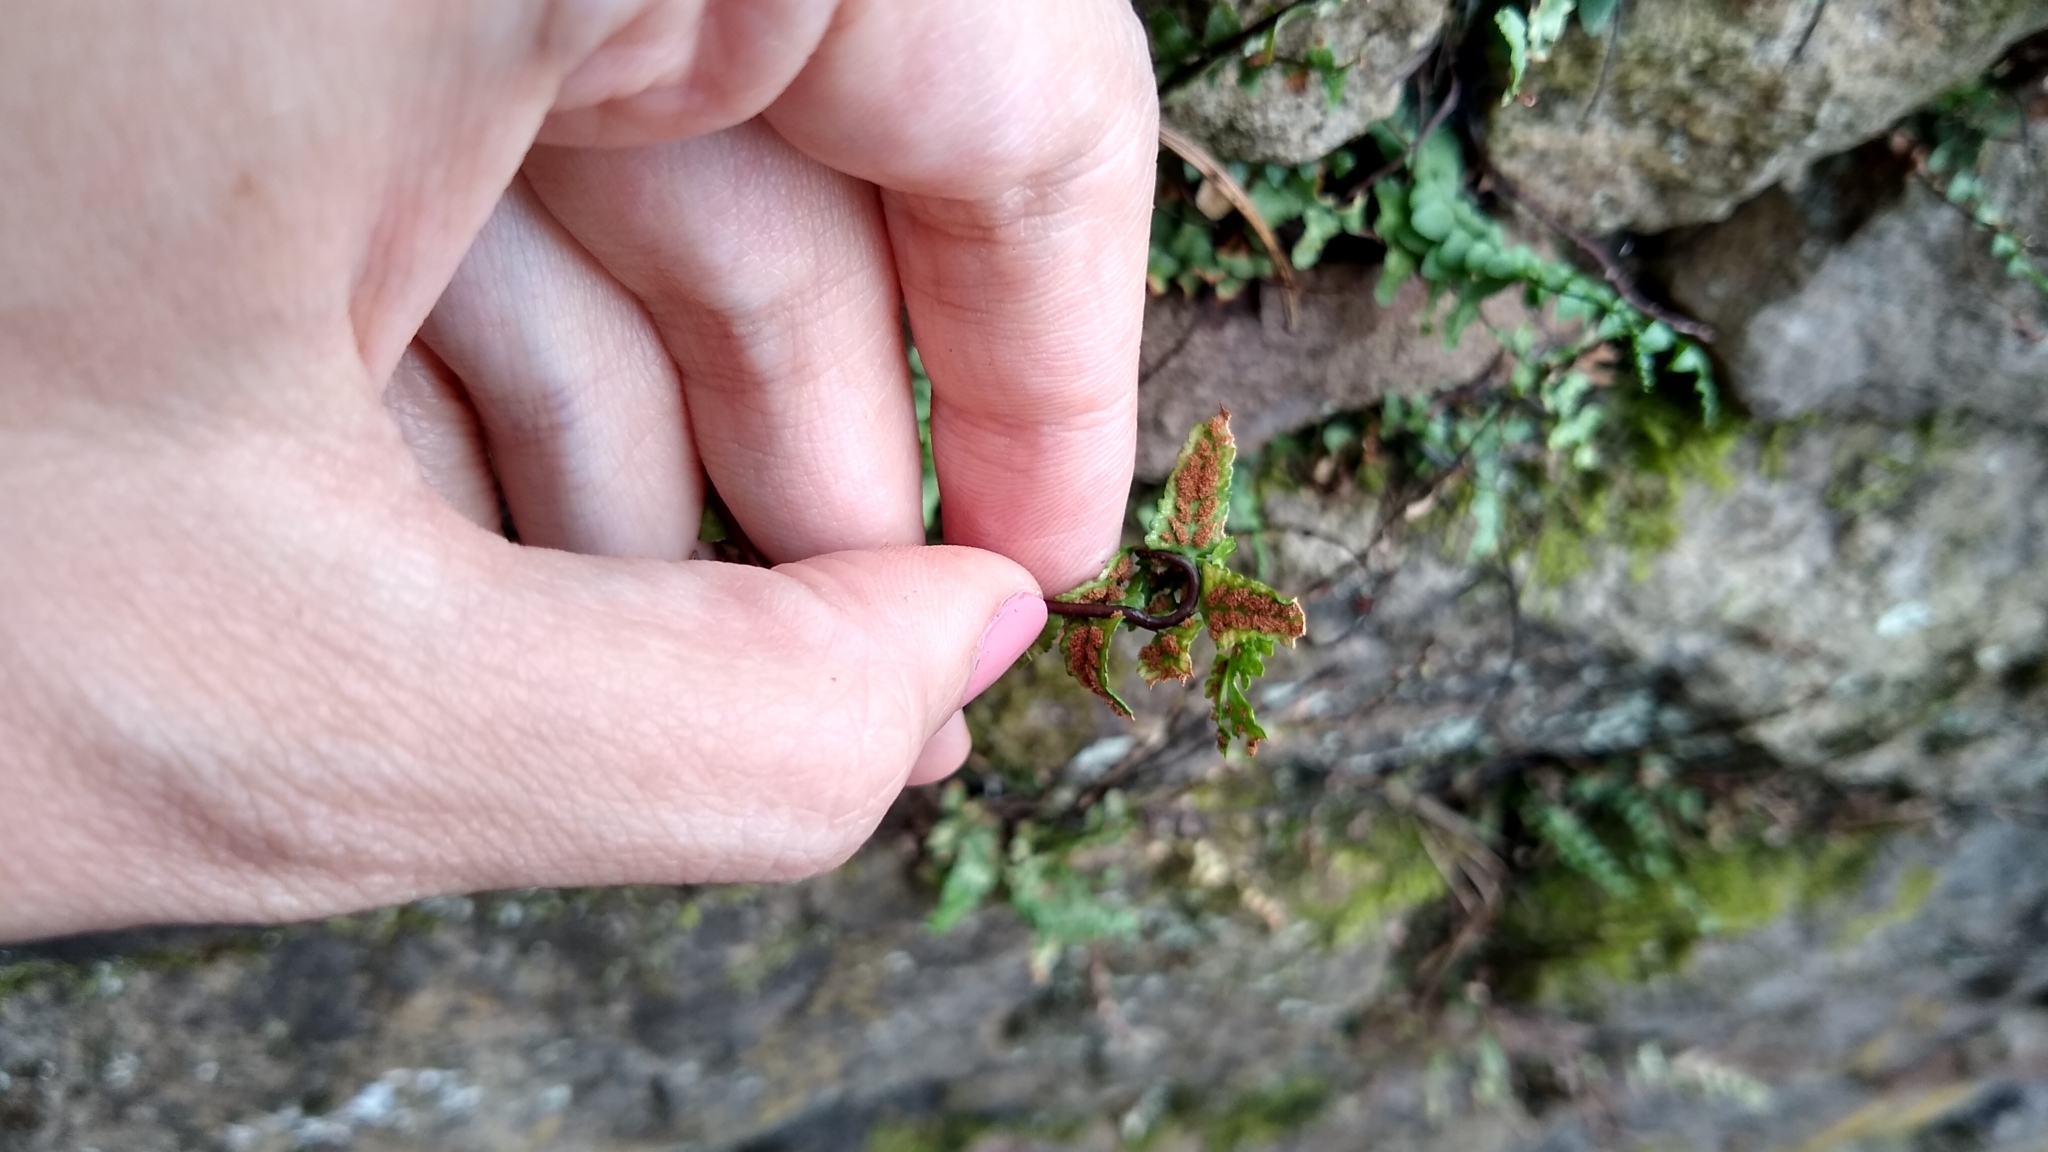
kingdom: Plantae
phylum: Tracheophyta
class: Polypodiopsida
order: Polypodiales
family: Aspleniaceae
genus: Asplenium
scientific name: Asplenium platyneuron
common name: Ebony spleenwort
